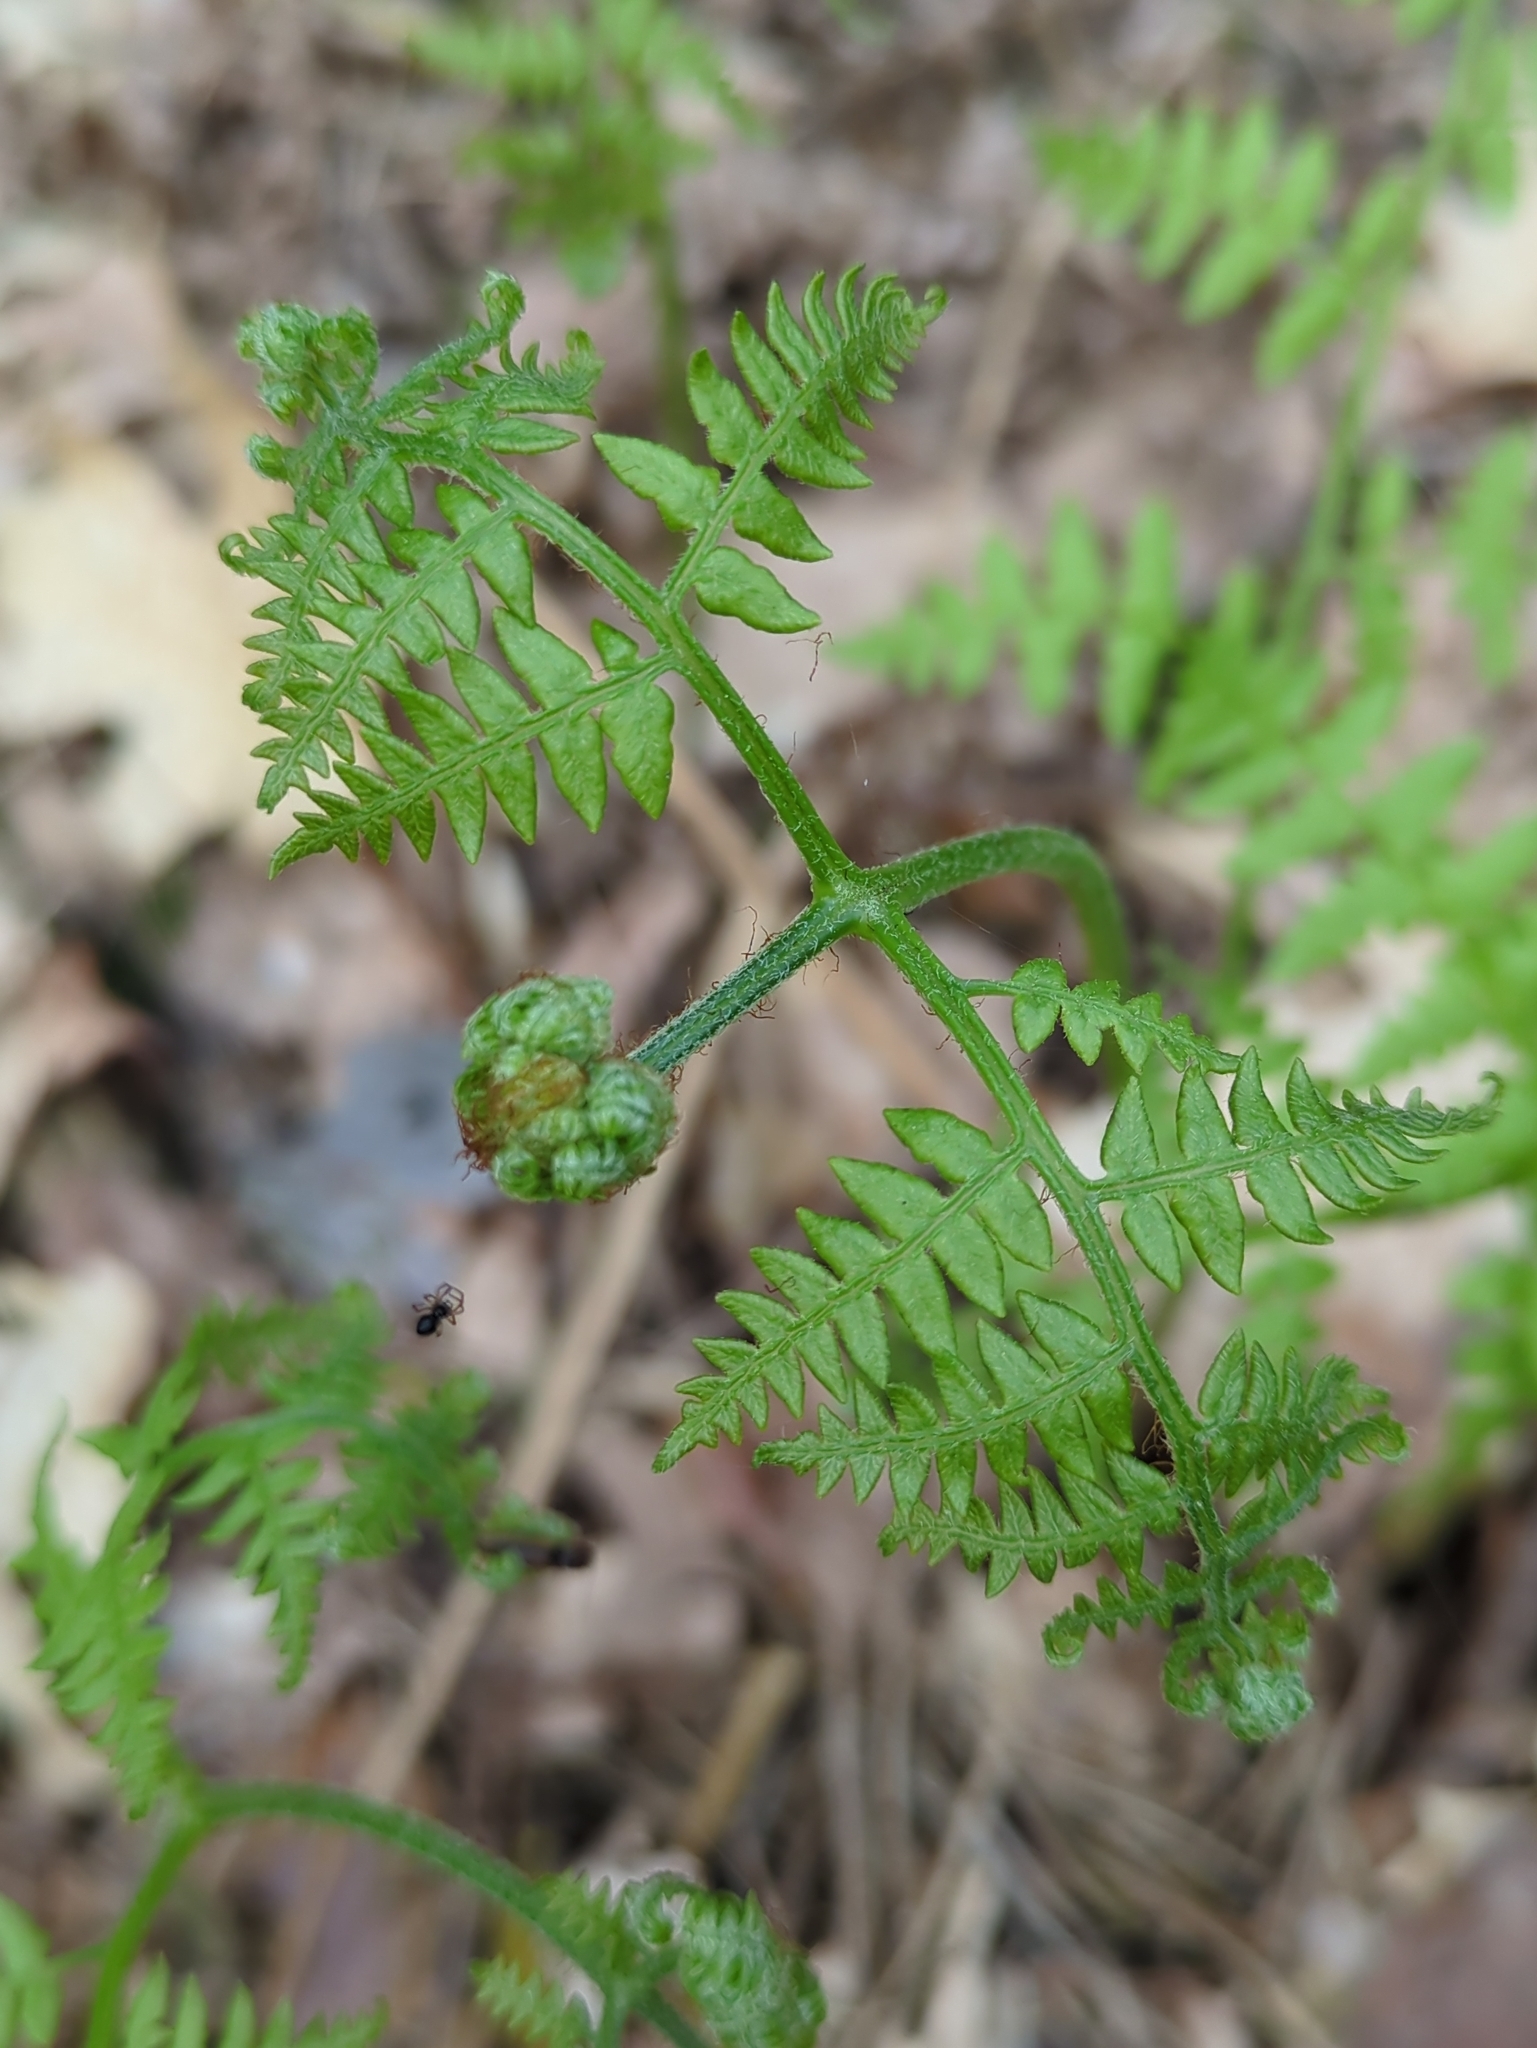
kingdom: Plantae
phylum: Tracheophyta
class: Polypodiopsida
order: Polypodiales
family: Dennstaedtiaceae
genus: Pteridium
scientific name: Pteridium aquilinum
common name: Bracken
